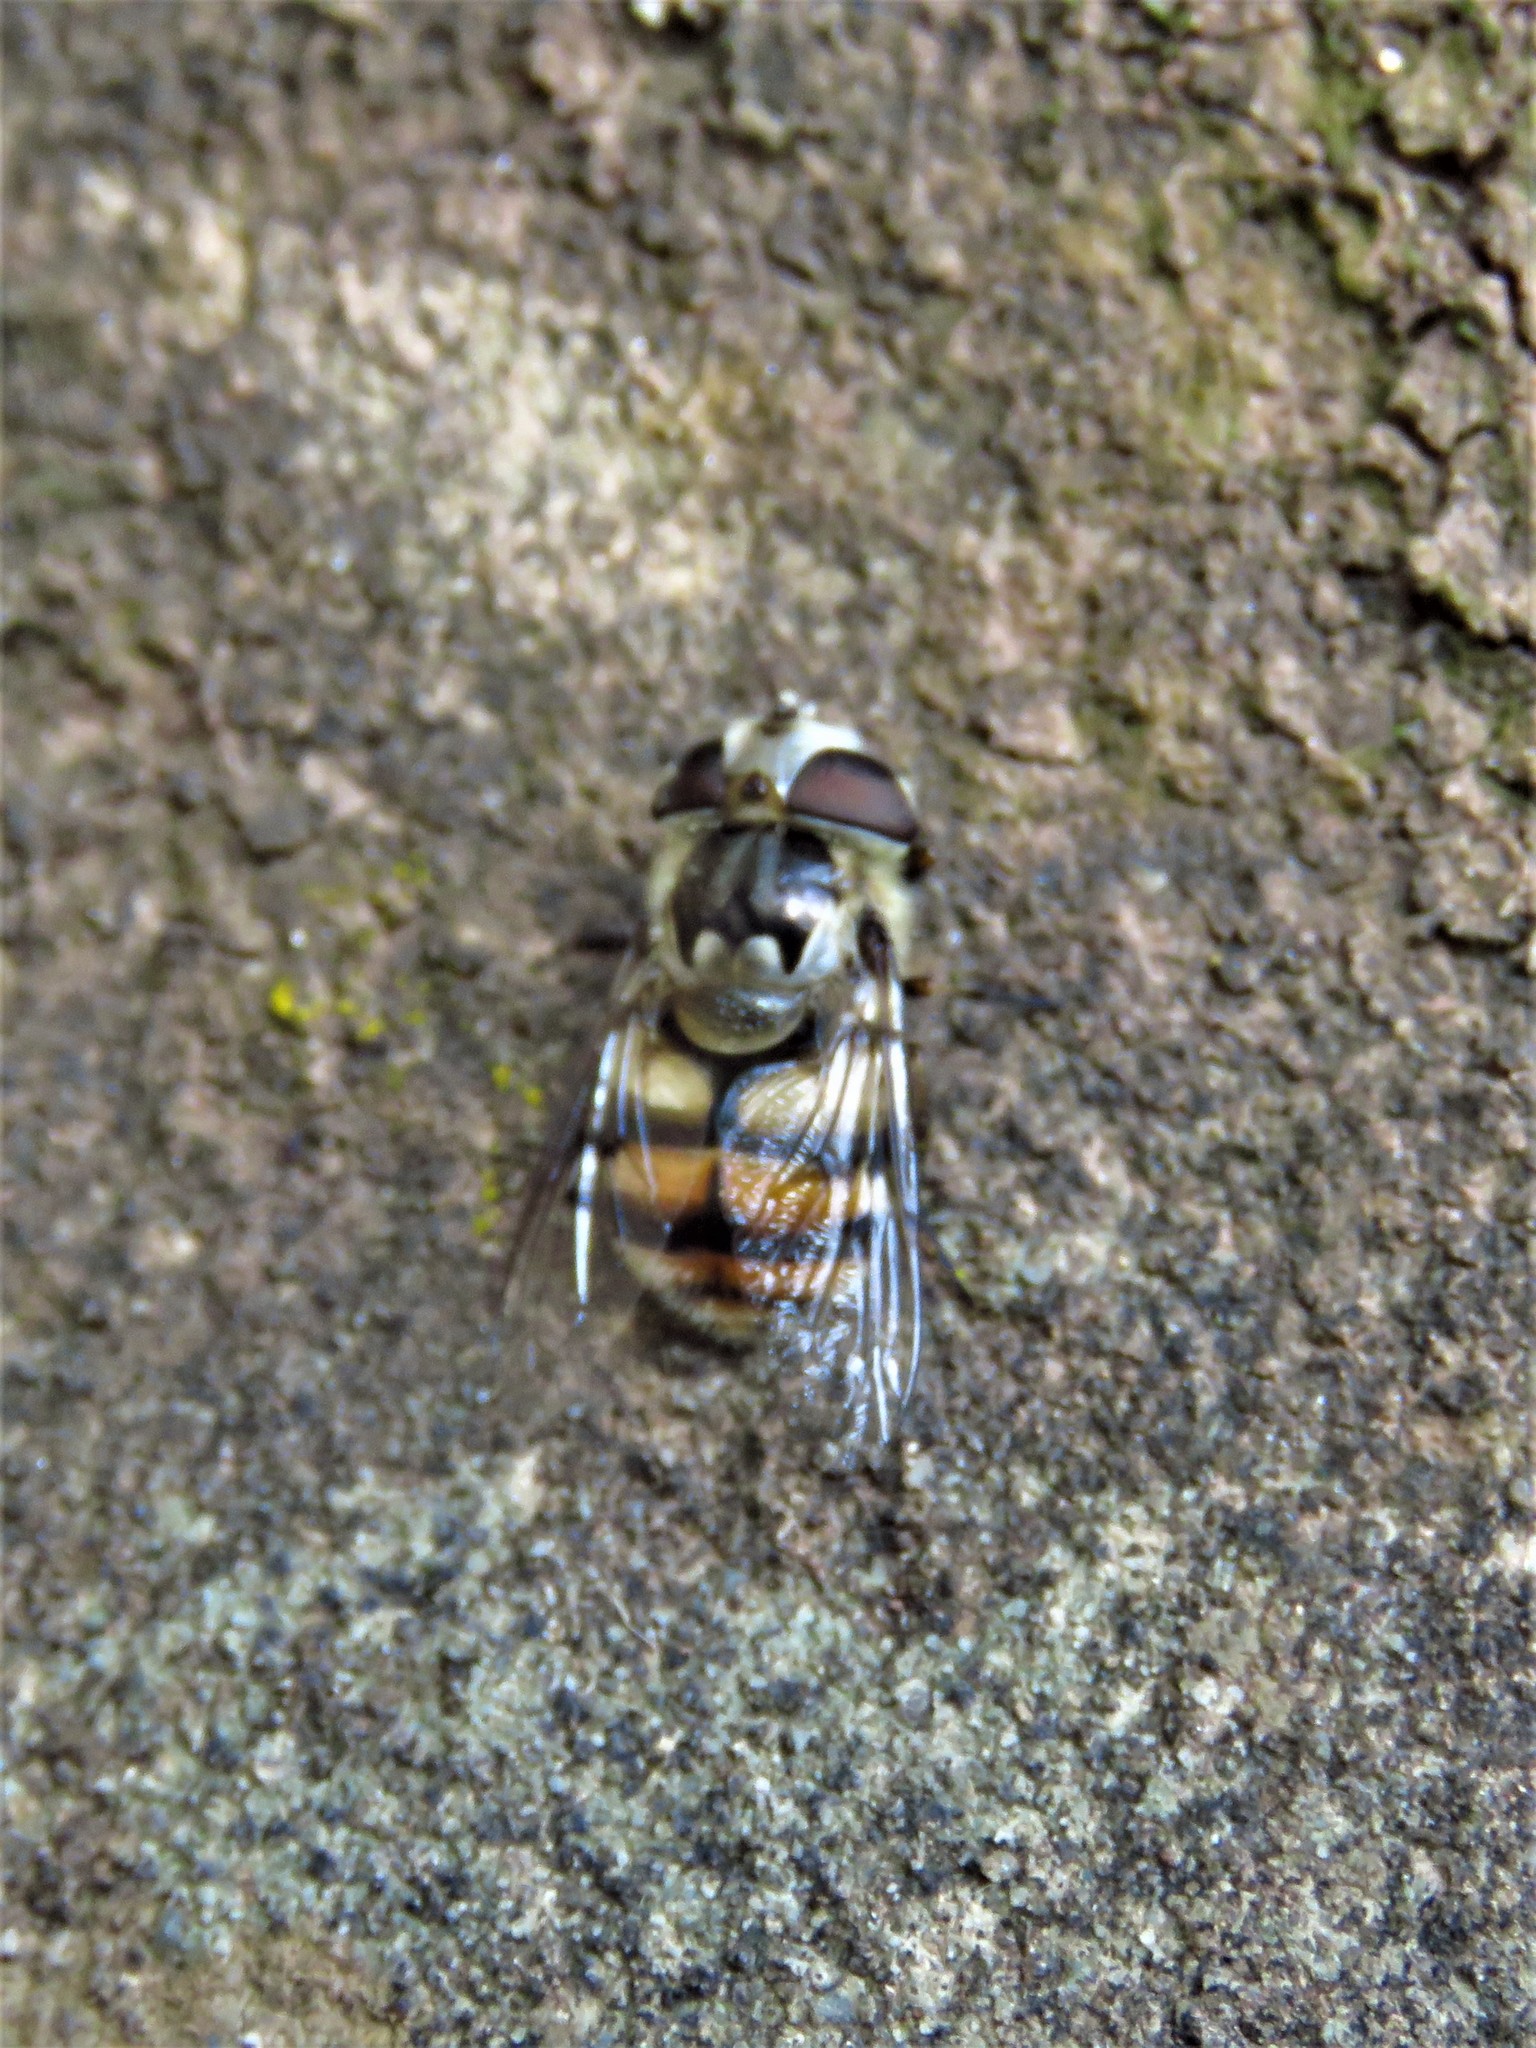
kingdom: Animalia
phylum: Arthropoda
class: Insecta
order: Diptera
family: Syrphidae
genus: Copestylum
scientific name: Copestylum avidum
